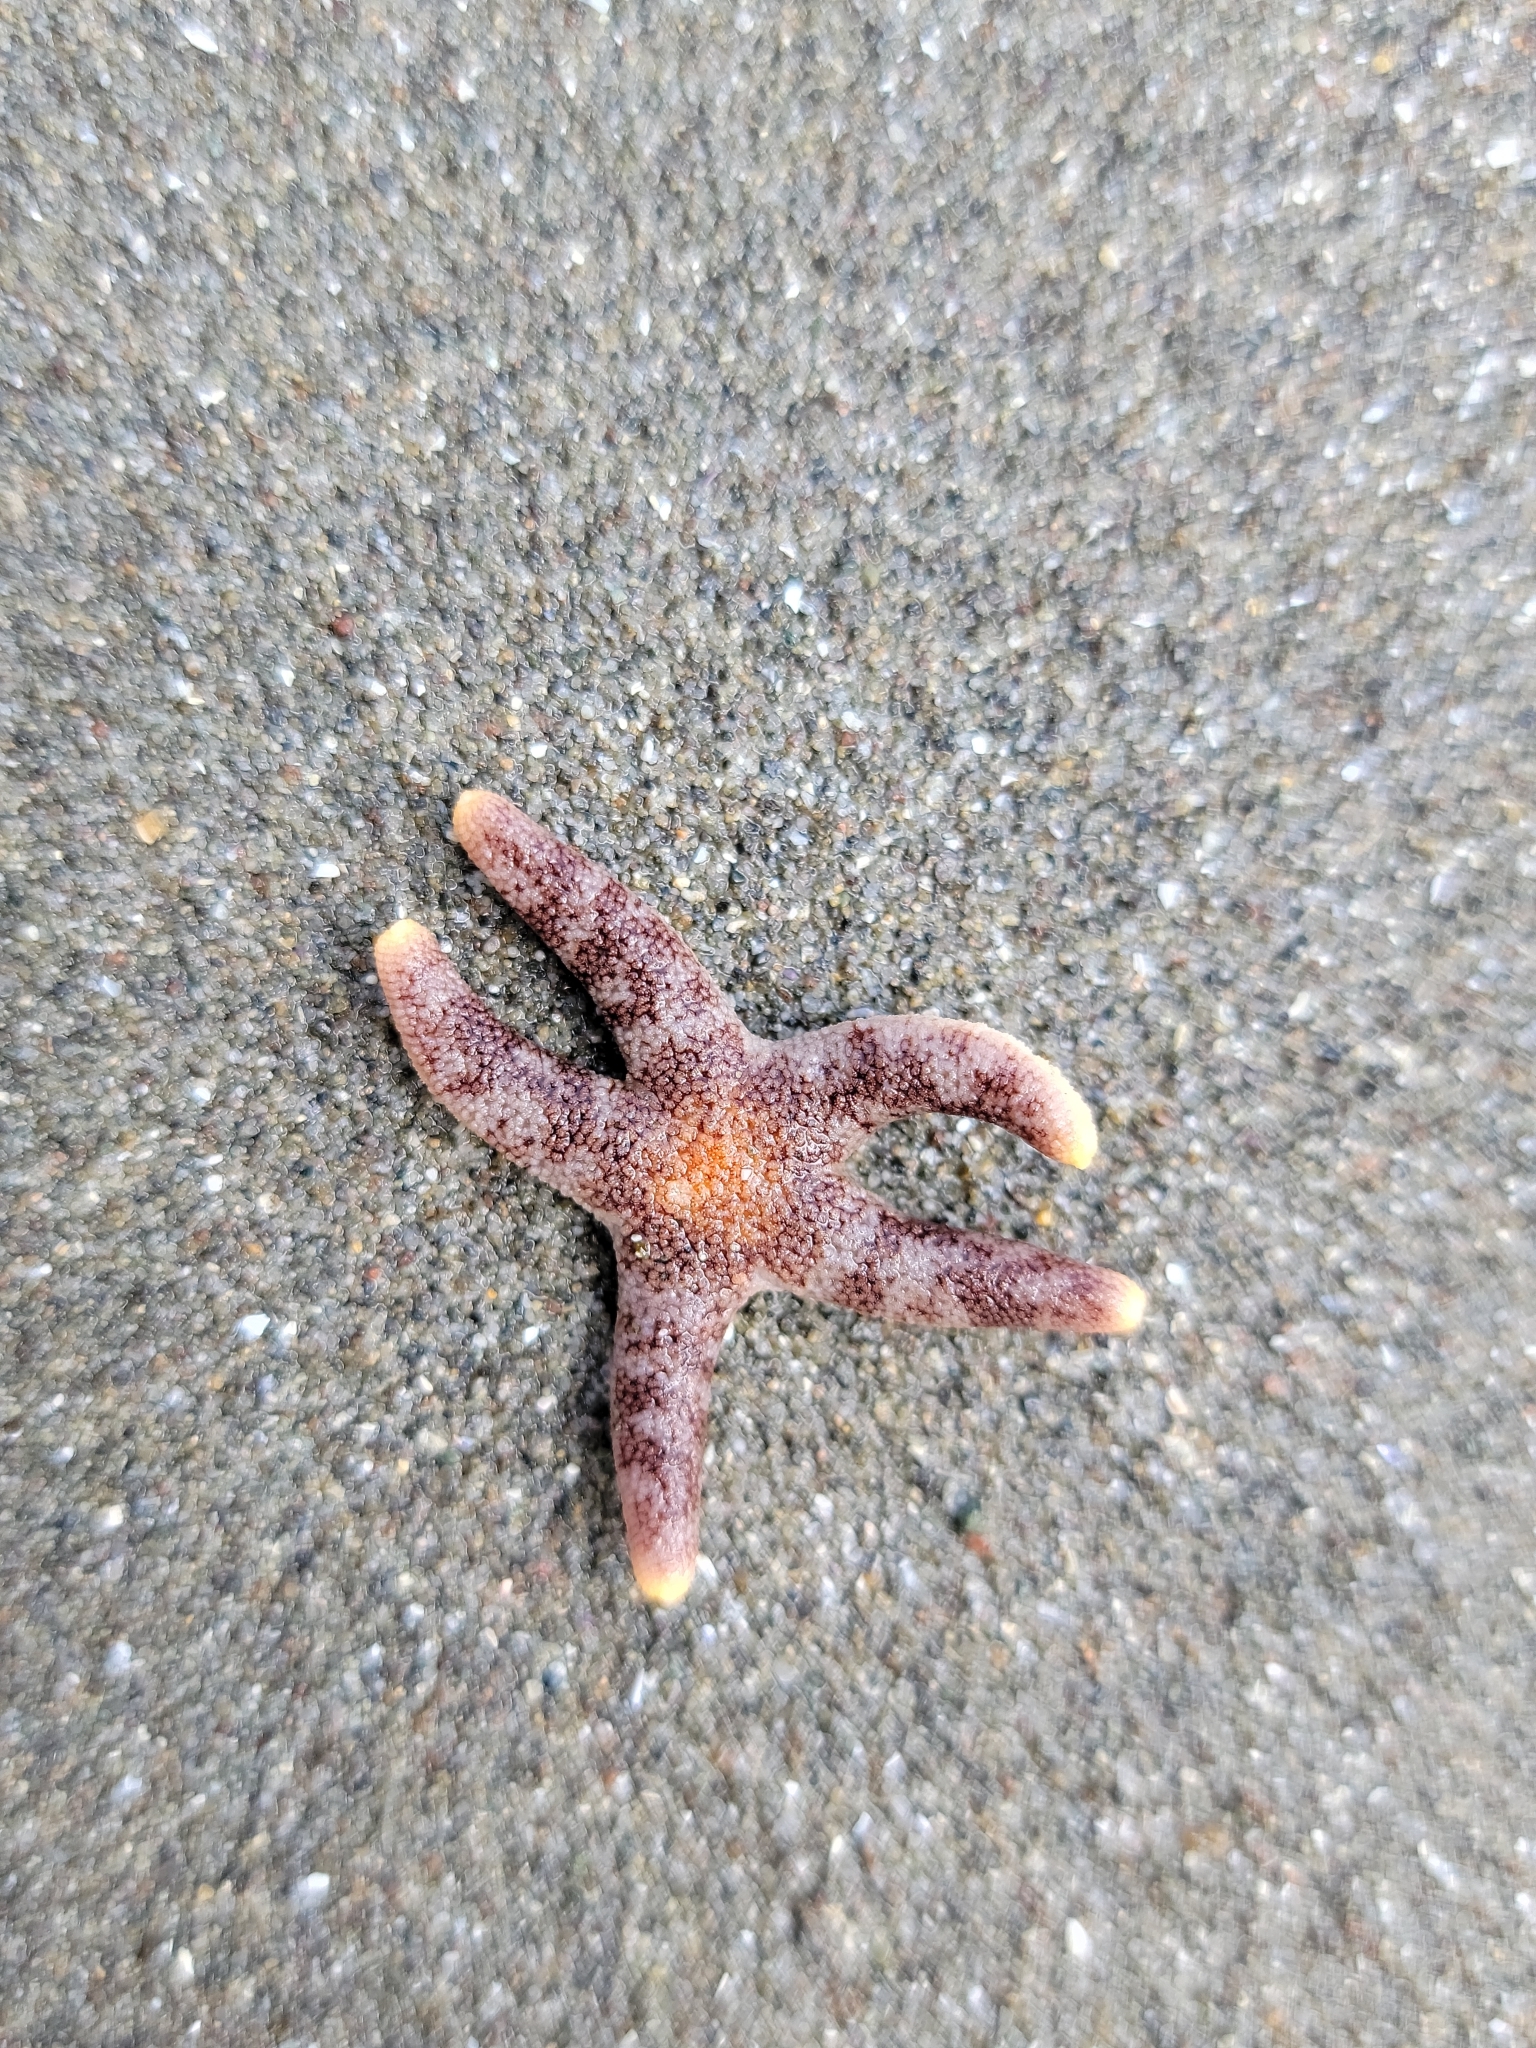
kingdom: Animalia
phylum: Echinodermata
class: Asteroidea
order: Spinulosida
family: Echinasteridae
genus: Henricia
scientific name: Henricia pumila
